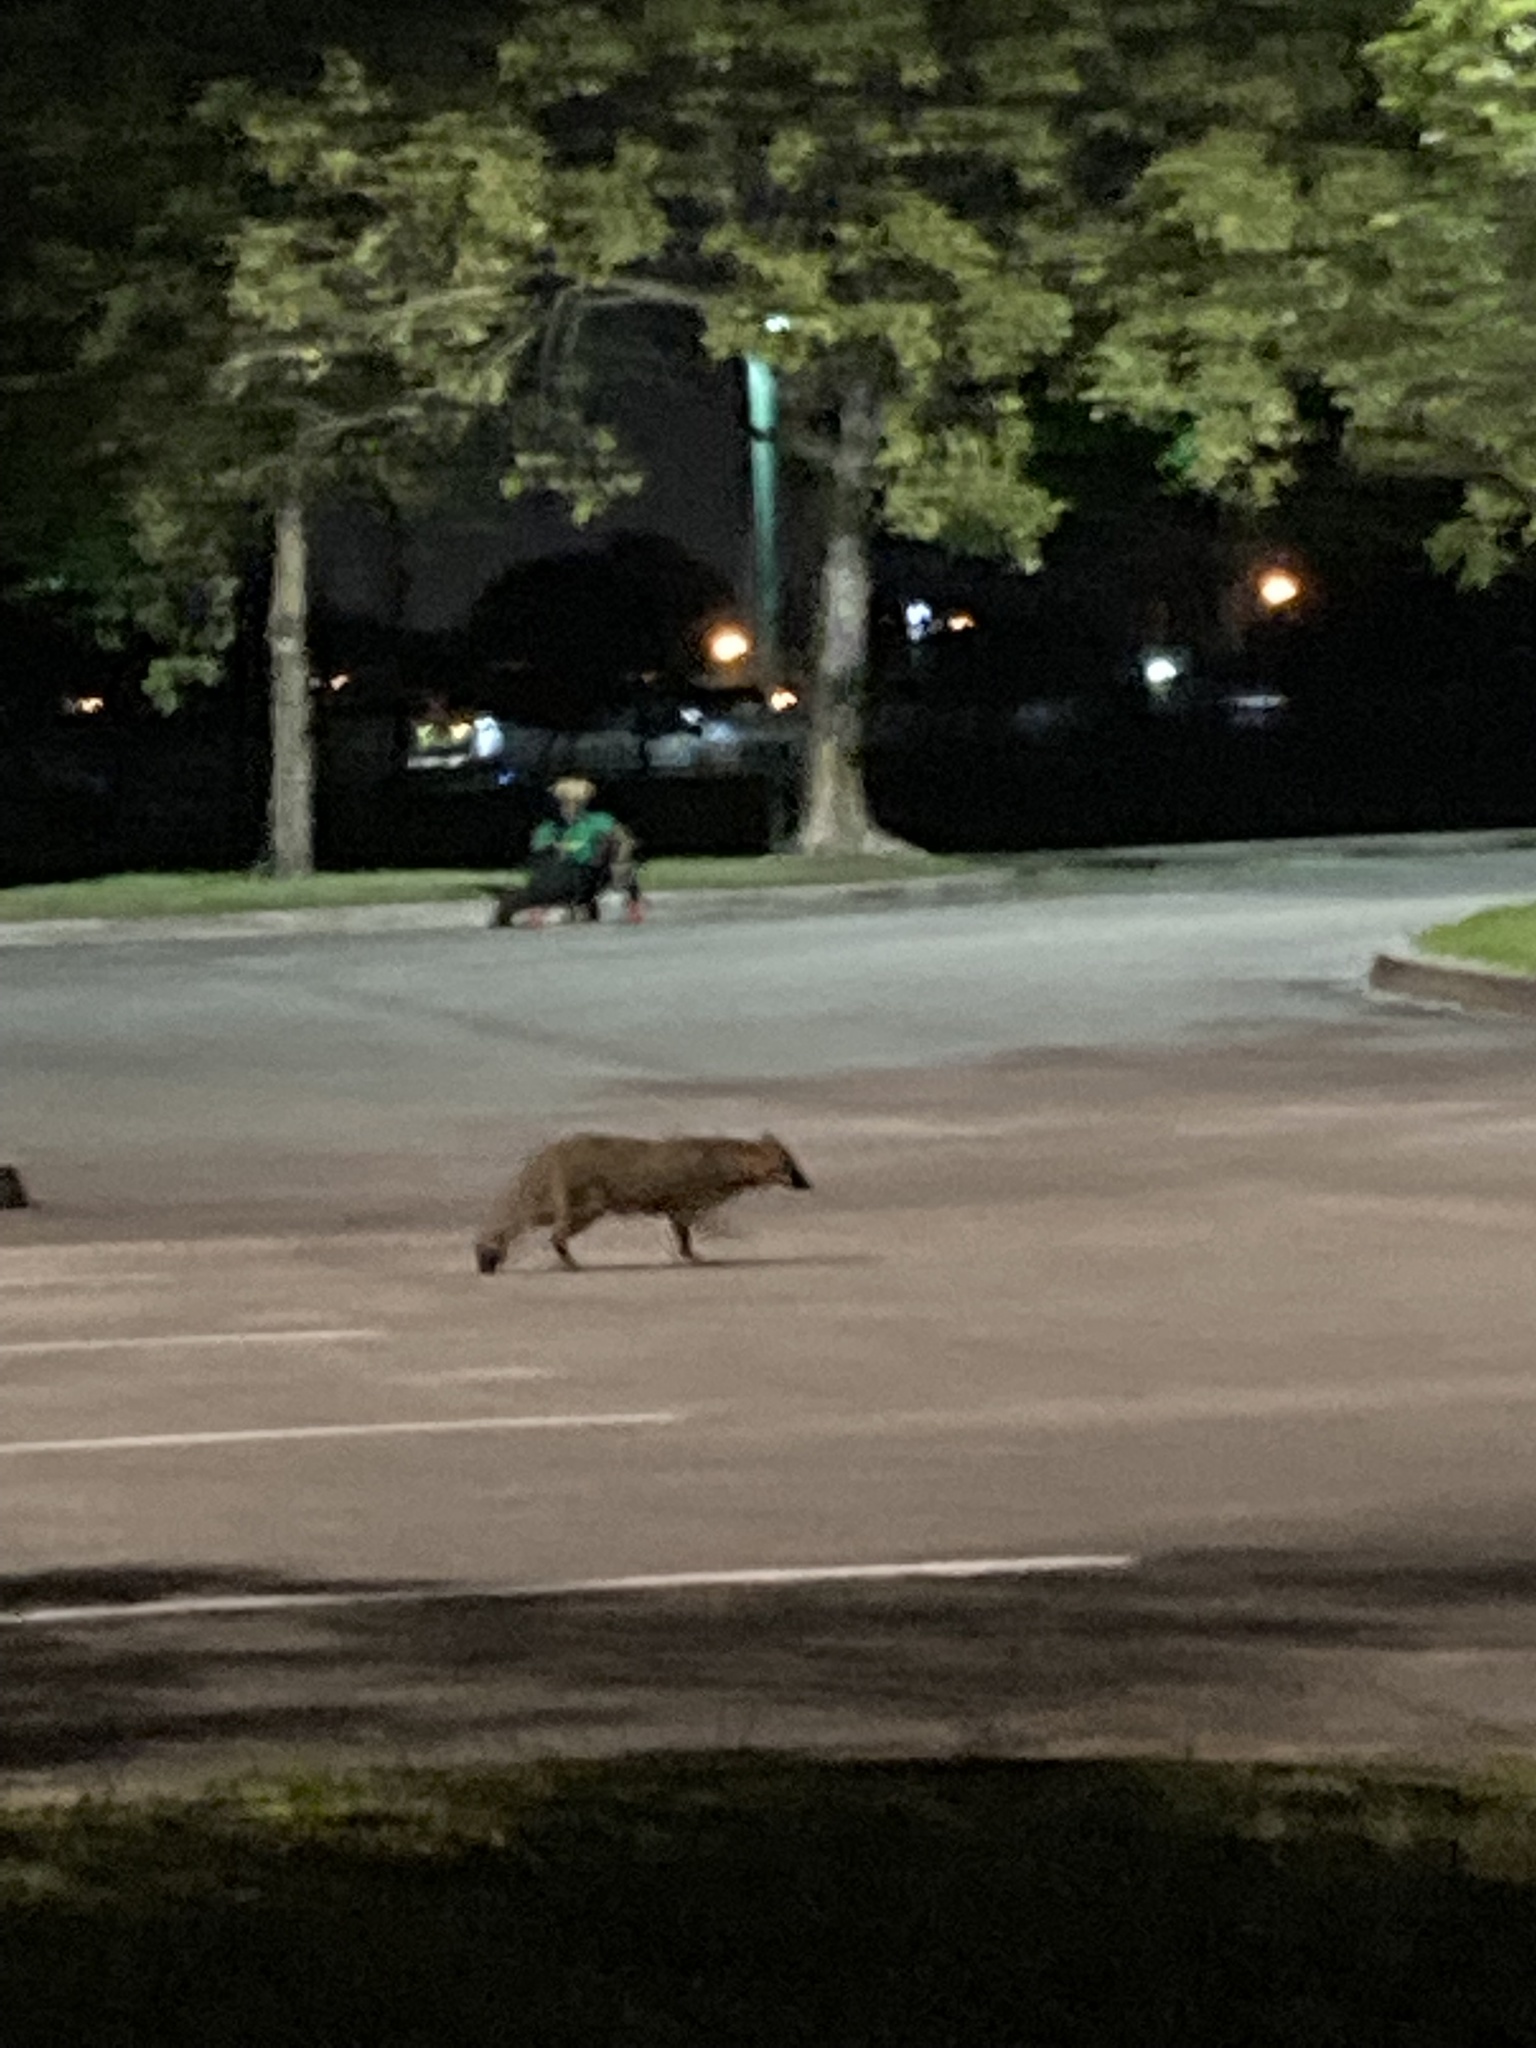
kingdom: Animalia
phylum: Chordata
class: Mammalia
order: Carnivora
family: Canidae
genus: Urocyon
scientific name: Urocyon cinereoargenteus
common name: Gray fox
